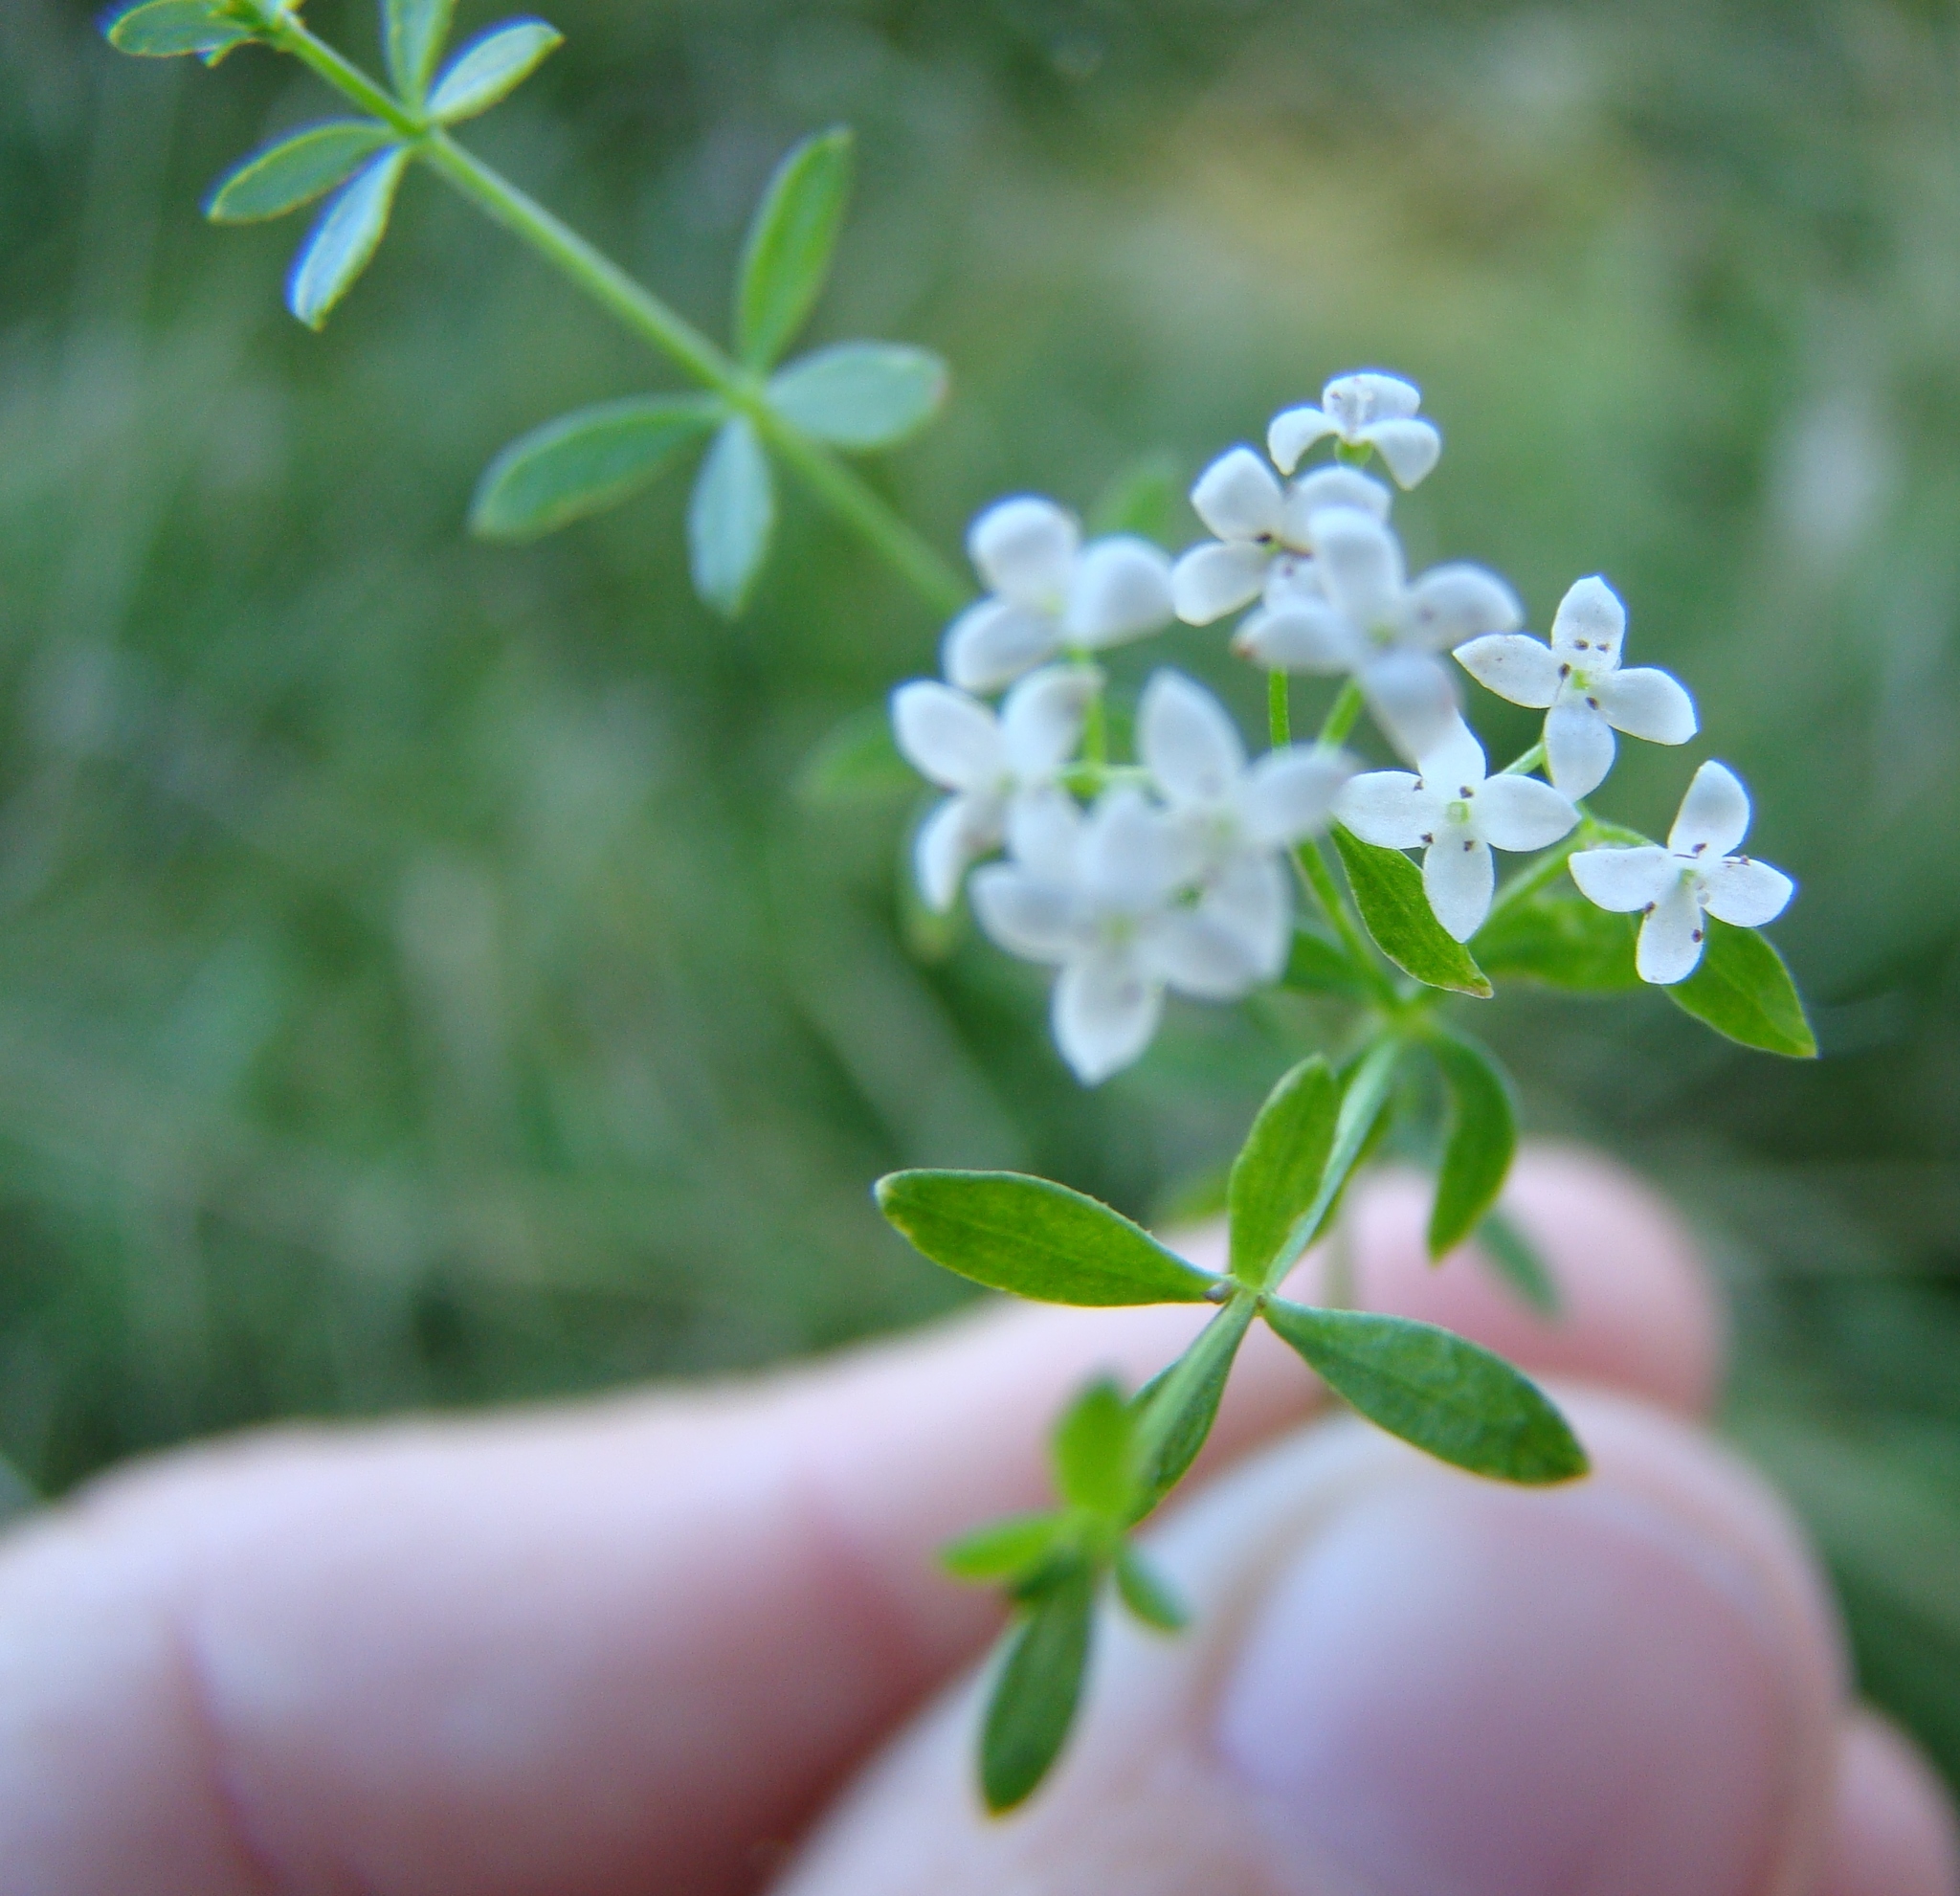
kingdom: Plantae
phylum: Tracheophyta
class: Magnoliopsida
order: Gentianales
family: Rubiaceae
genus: Galium
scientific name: Galium palustre
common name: Common marsh-bedstraw
